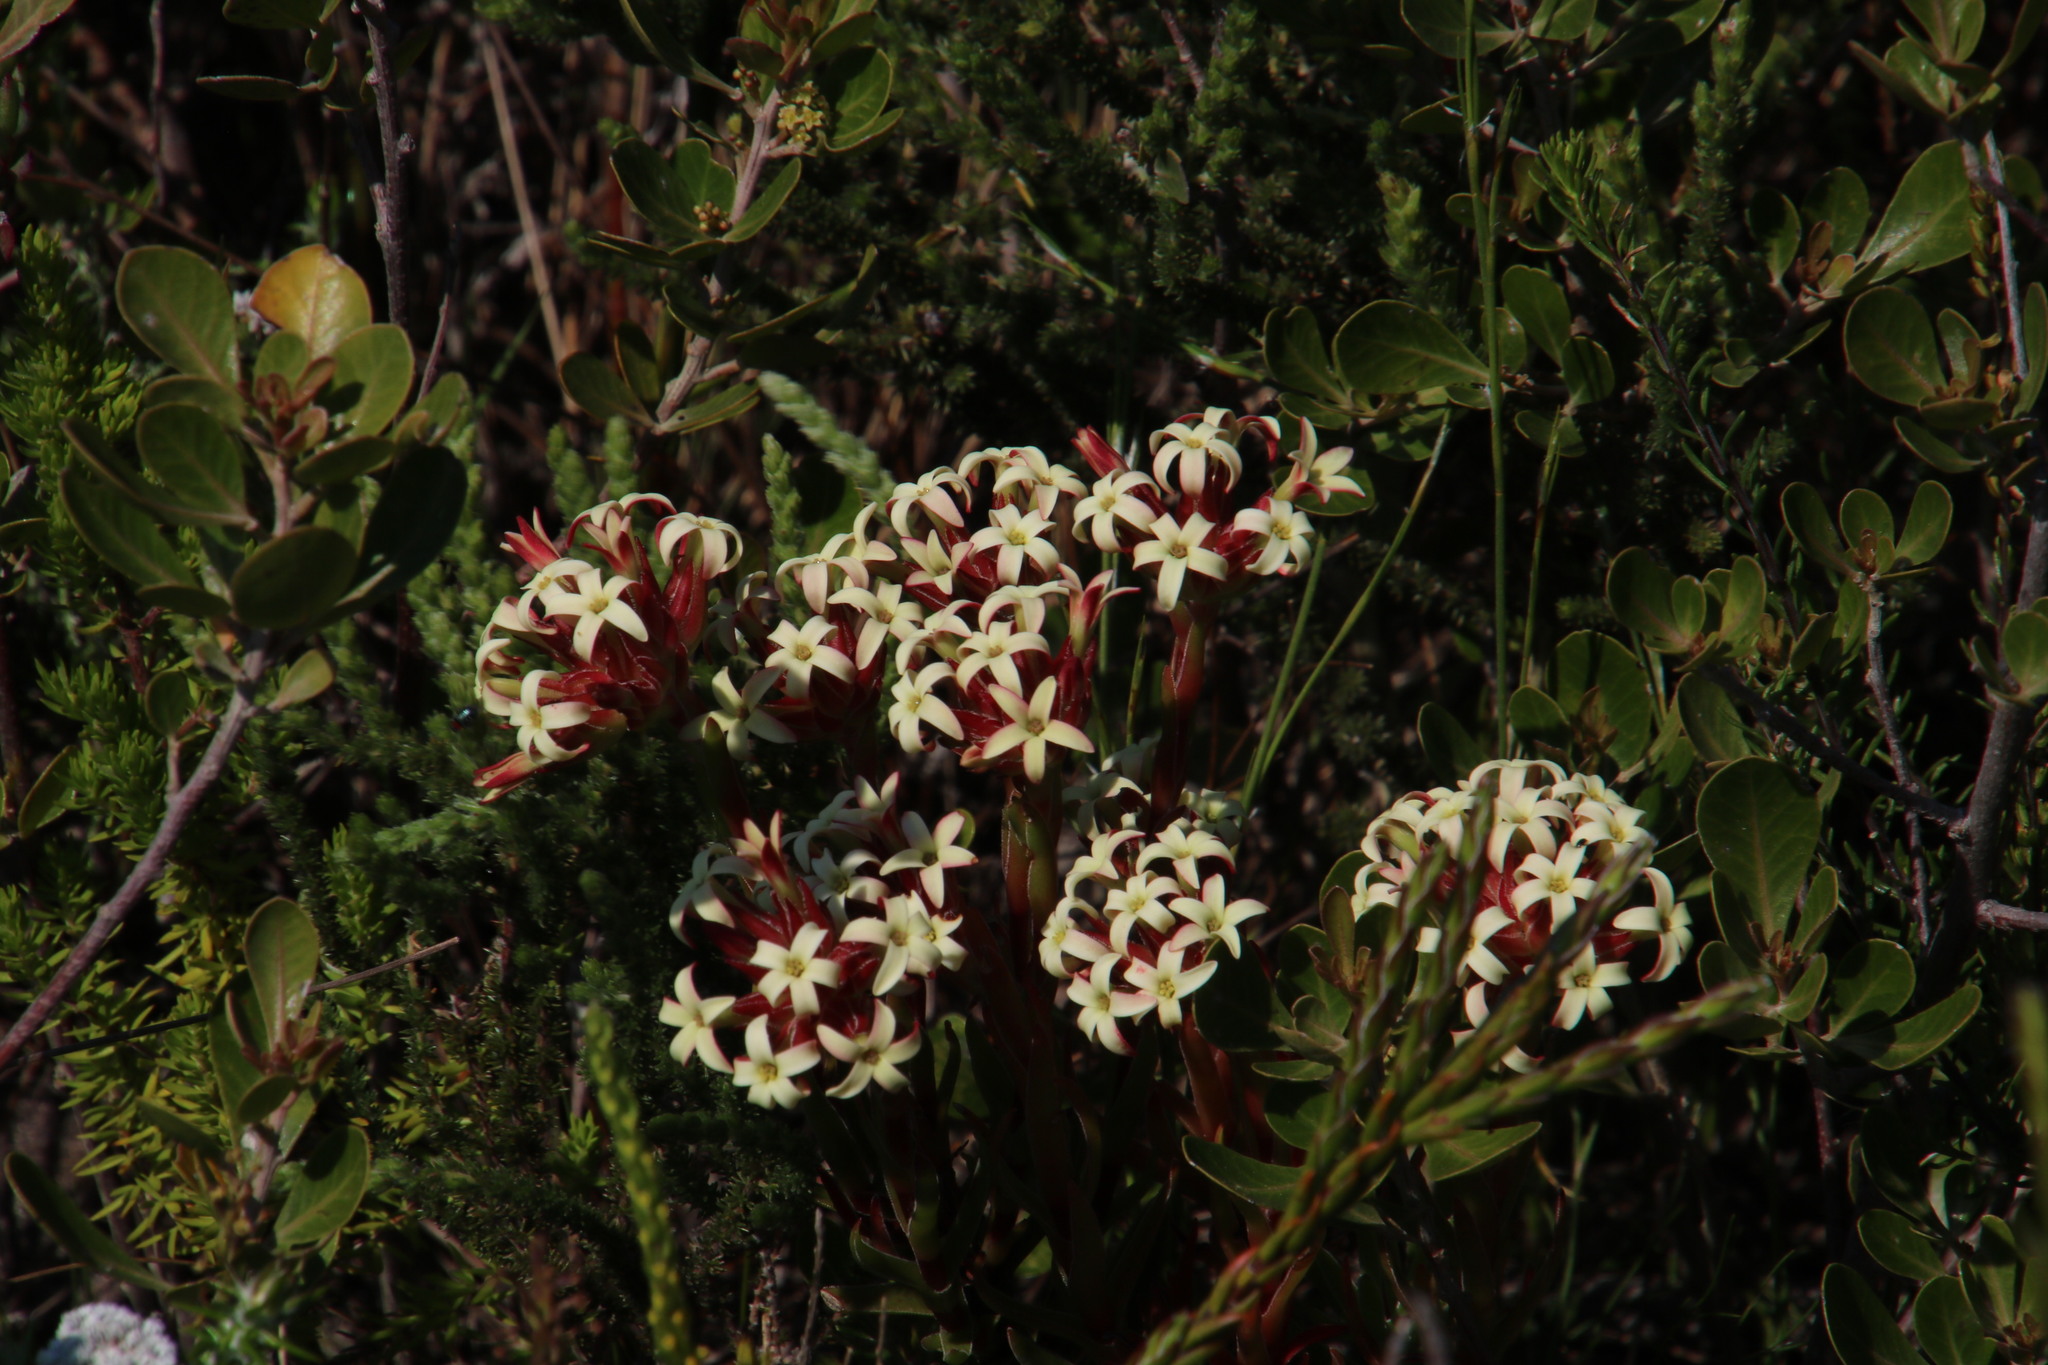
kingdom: Plantae
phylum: Tracheophyta
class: Magnoliopsida
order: Saxifragales
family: Crassulaceae
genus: Crassula
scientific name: Crassula fascicularis
